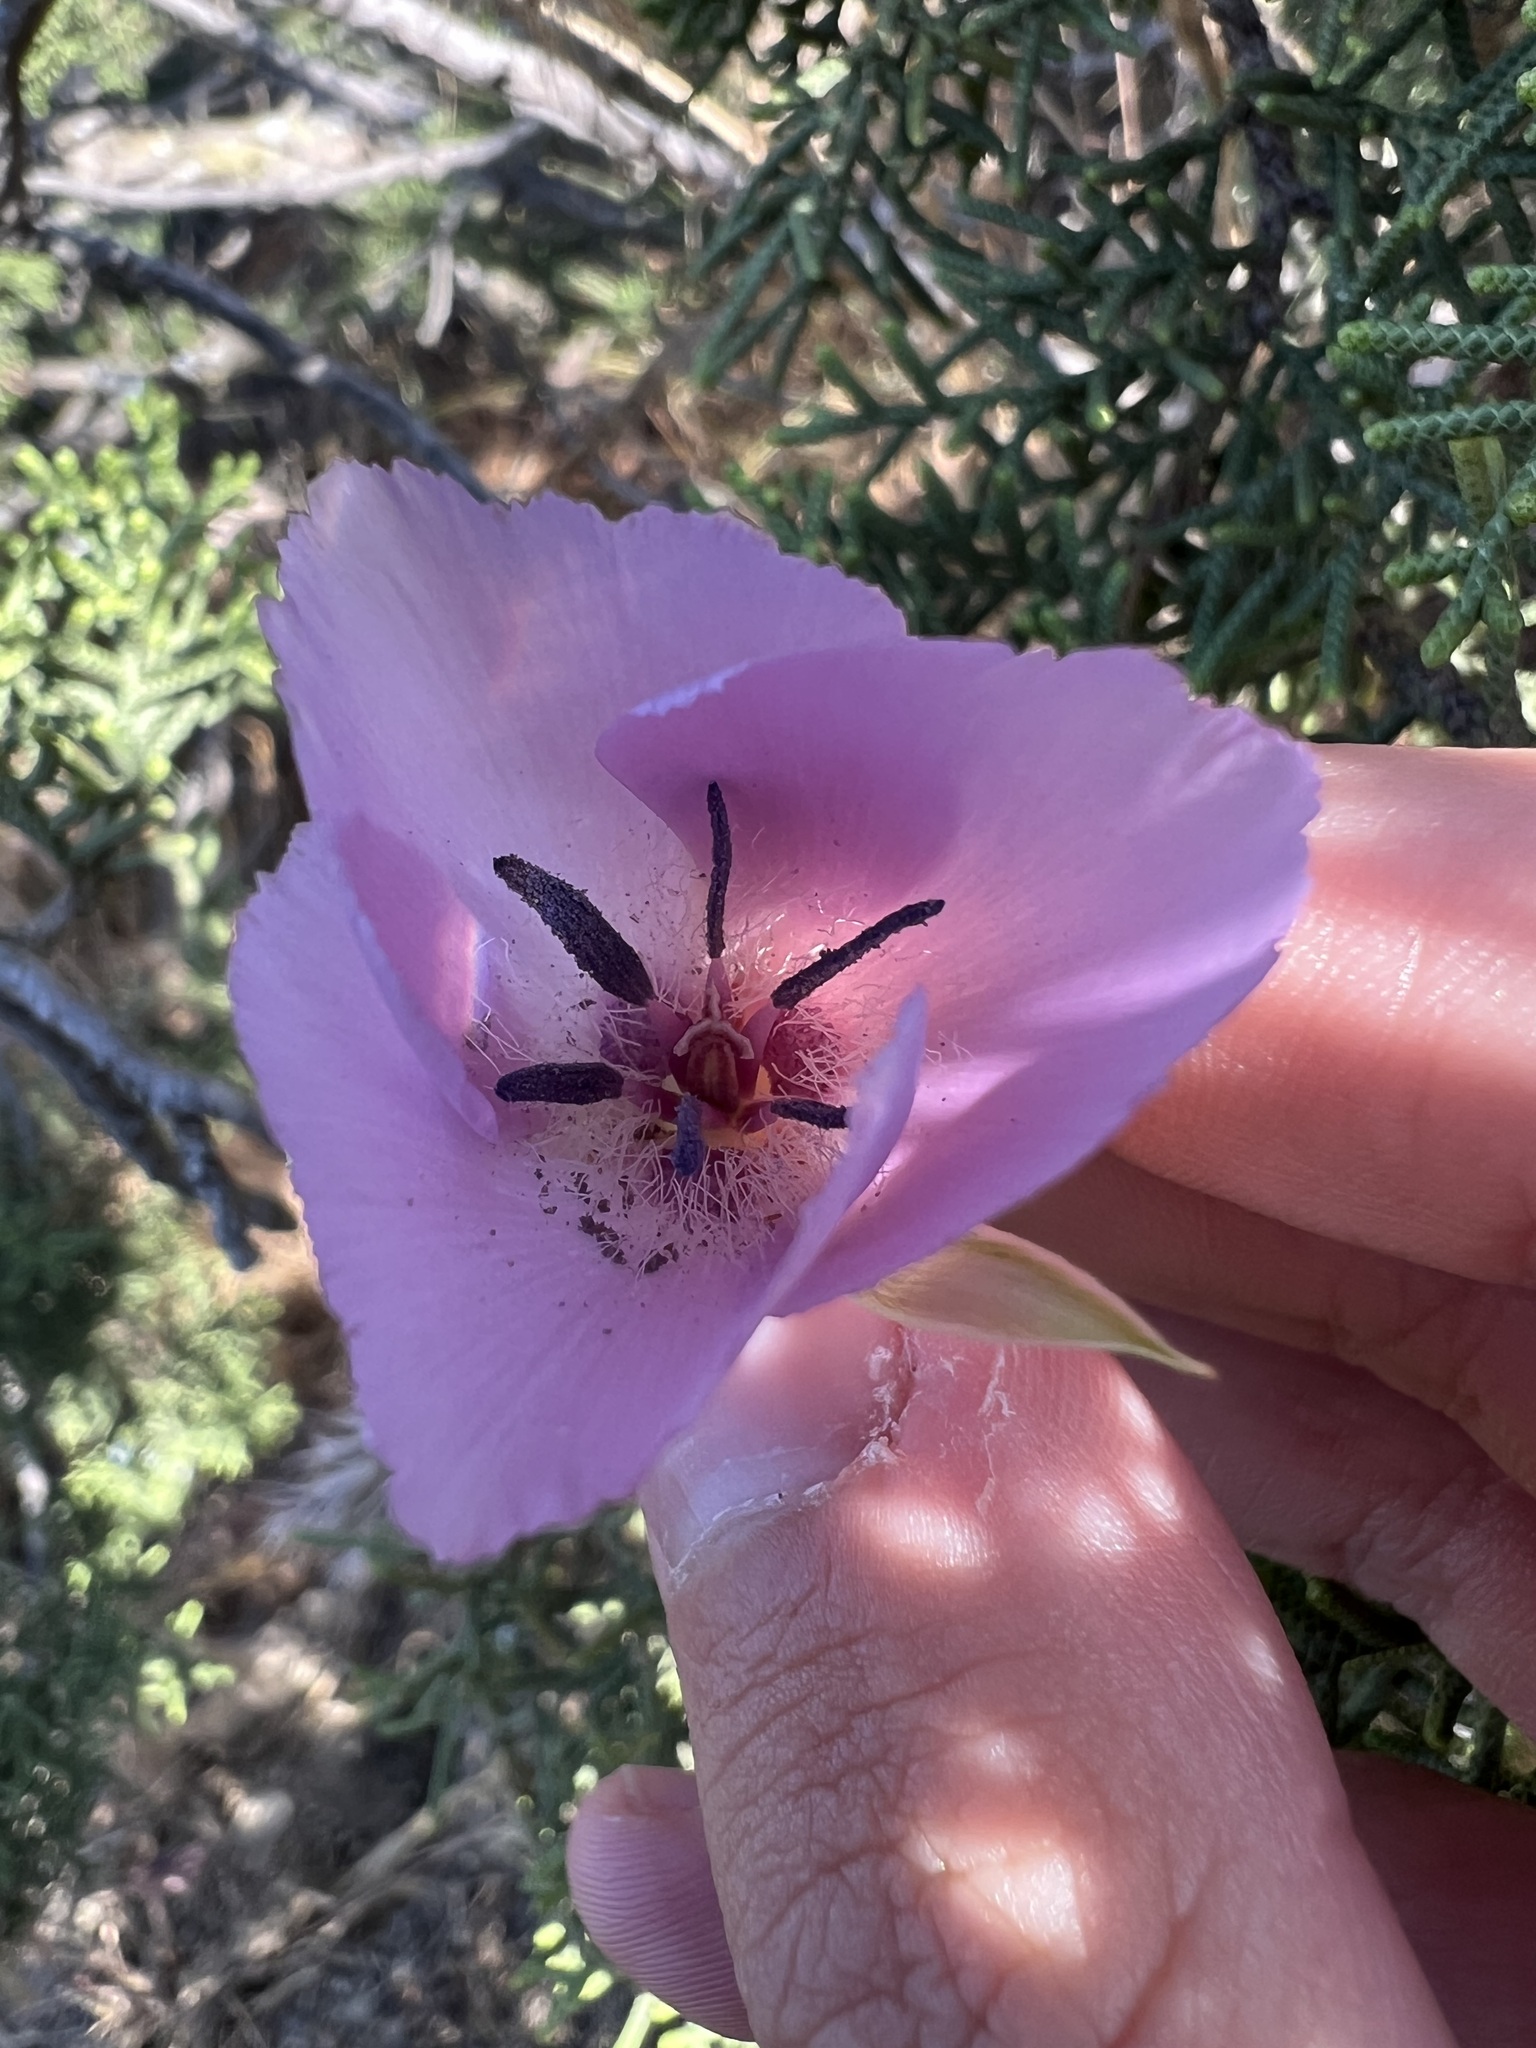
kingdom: Plantae
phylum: Tracheophyta
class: Liliopsida
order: Liliales
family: Liliaceae
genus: Calochortus
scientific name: Calochortus splendens
